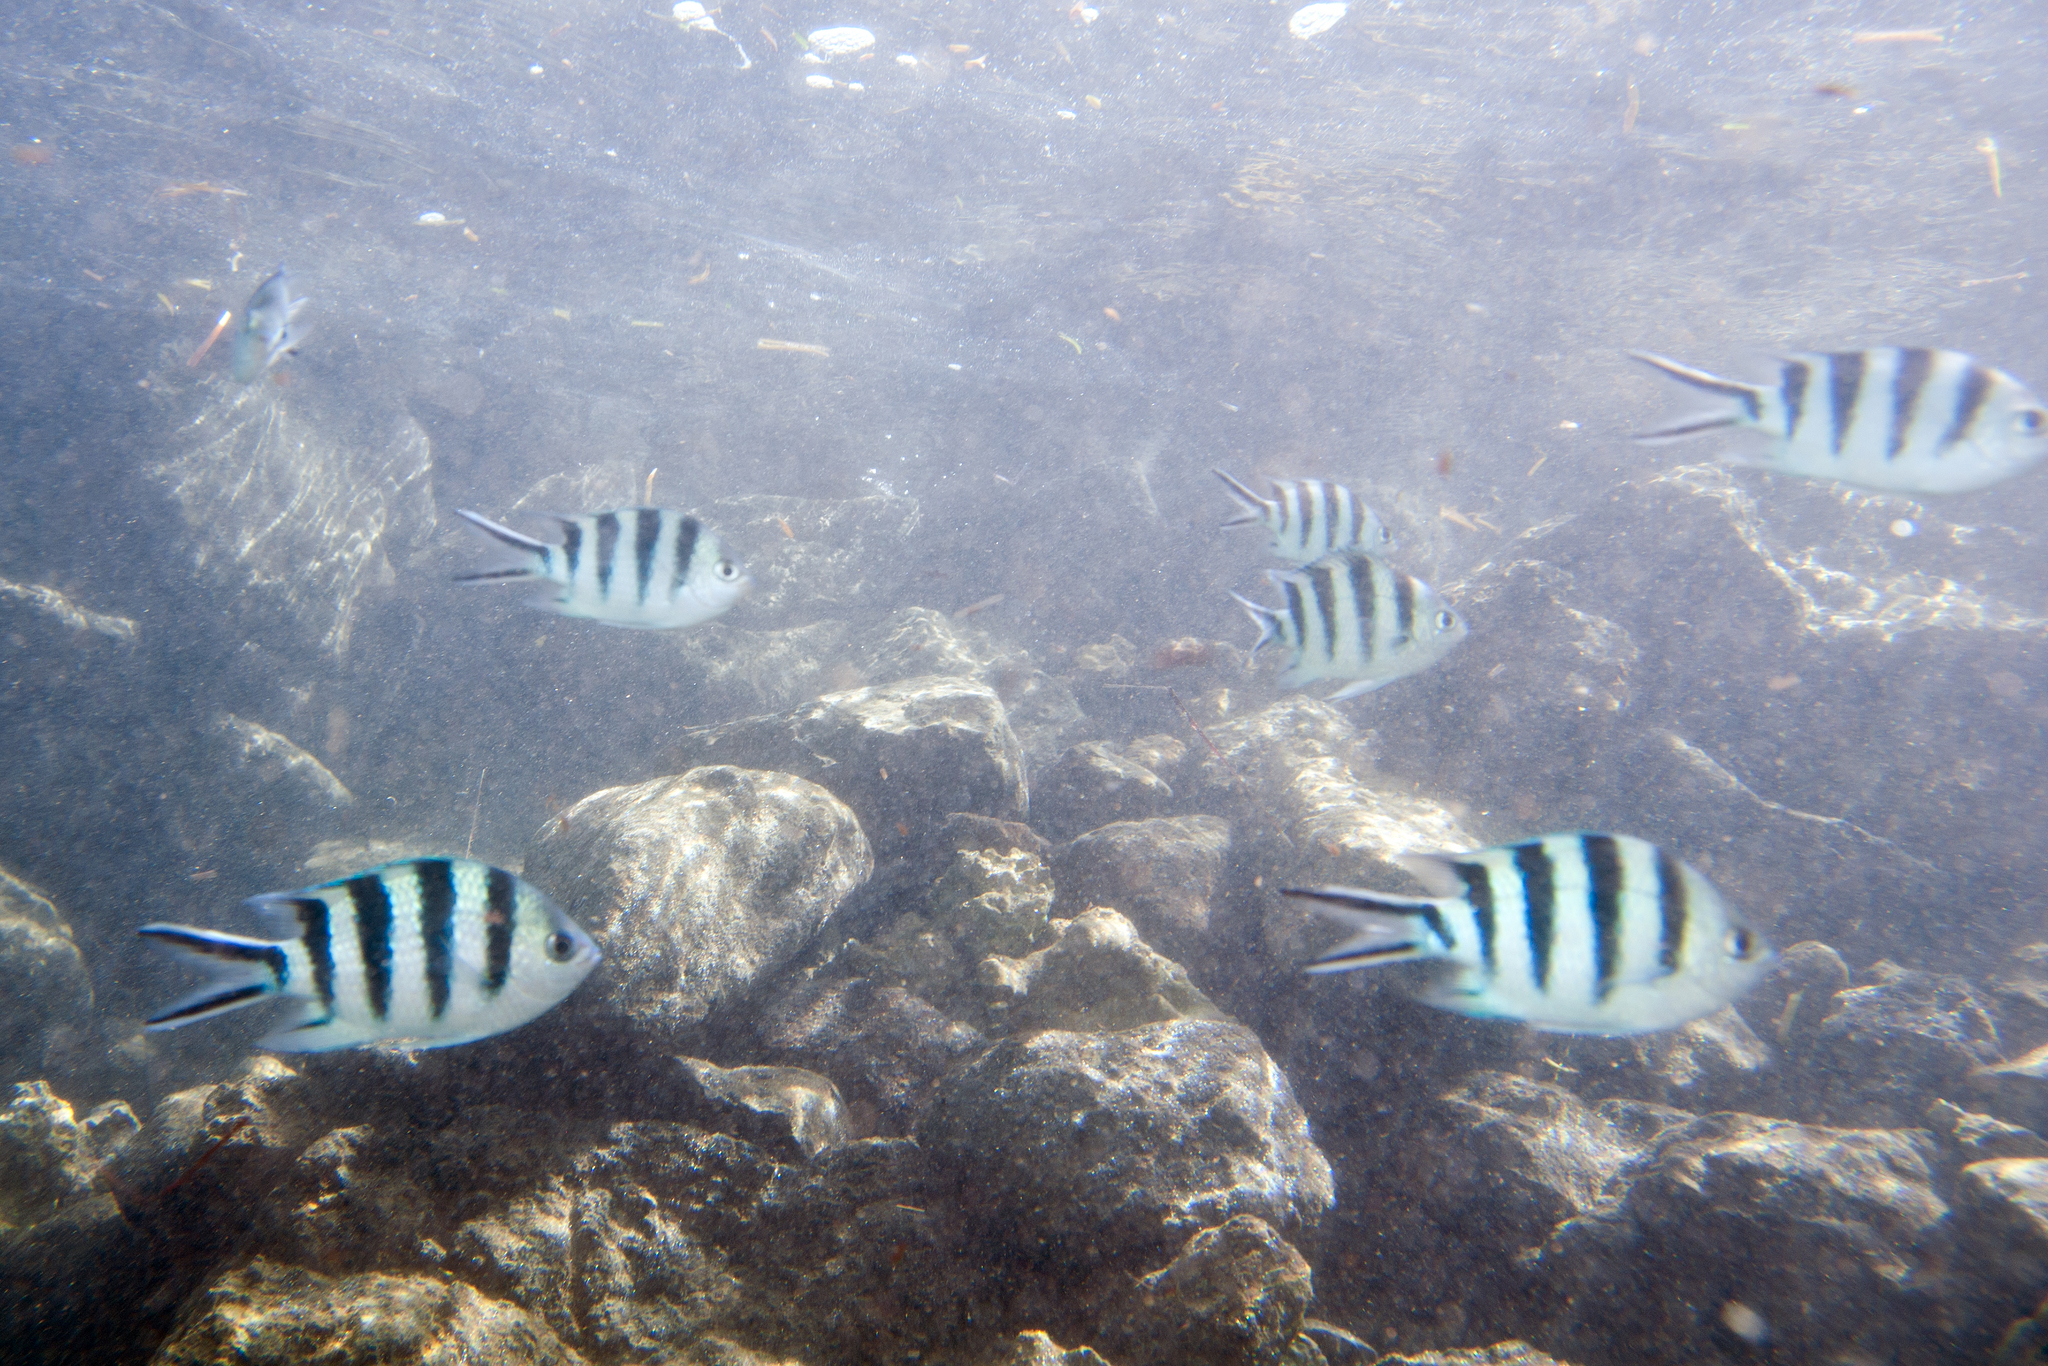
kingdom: Animalia
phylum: Chordata
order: Perciformes
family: Pomacentridae
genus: Abudefduf
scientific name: Abudefduf sexfasciatus
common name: Scissortail sergeant
